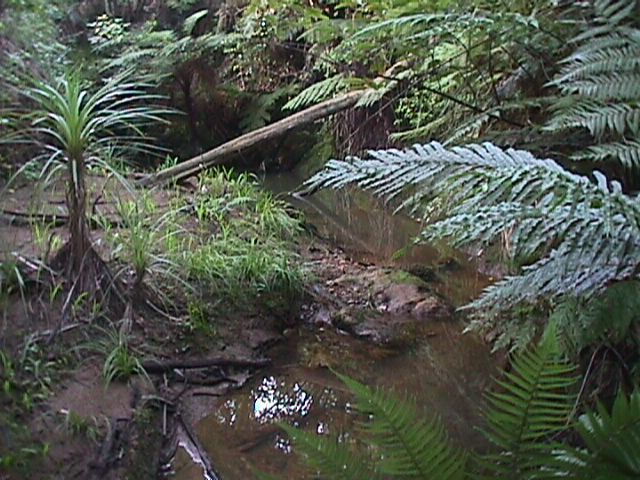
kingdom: Plantae
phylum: Tracheophyta
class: Liliopsida
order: Asparagales
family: Asparagaceae
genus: Cordyline
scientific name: Cordyline australis
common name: Cabbage-palm
